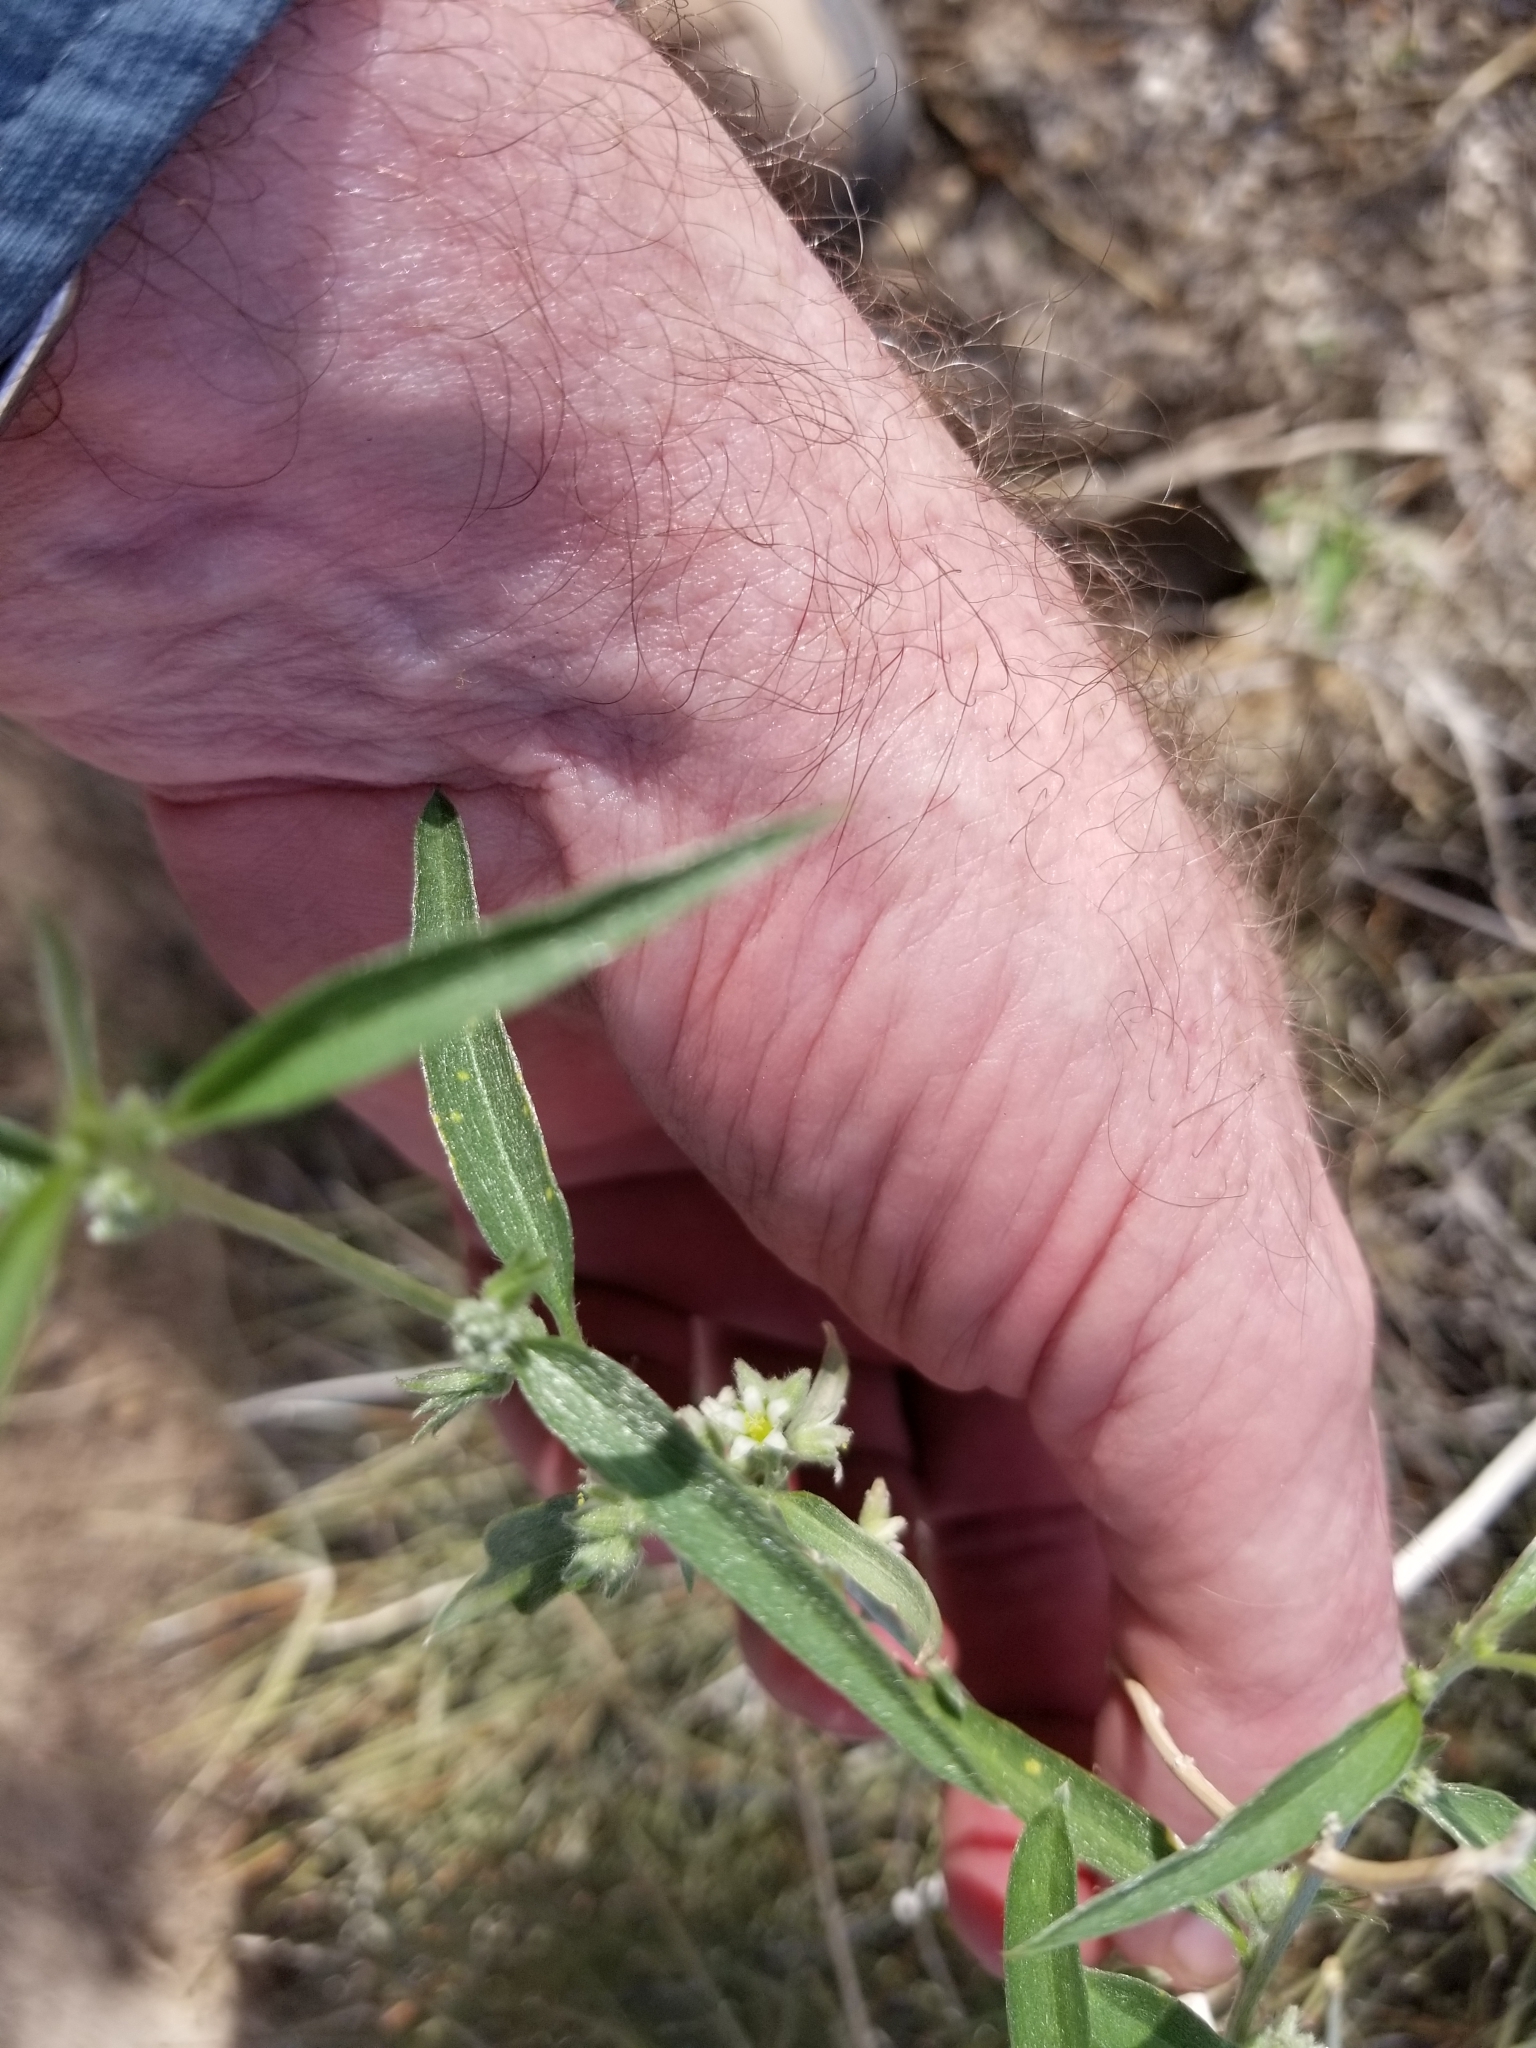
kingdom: Plantae
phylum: Tracheophyta
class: Magnoliopsida
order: Malpighiales
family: Euphorbiaceae
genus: Ditaxis
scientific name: Ditaxis lanceolata
